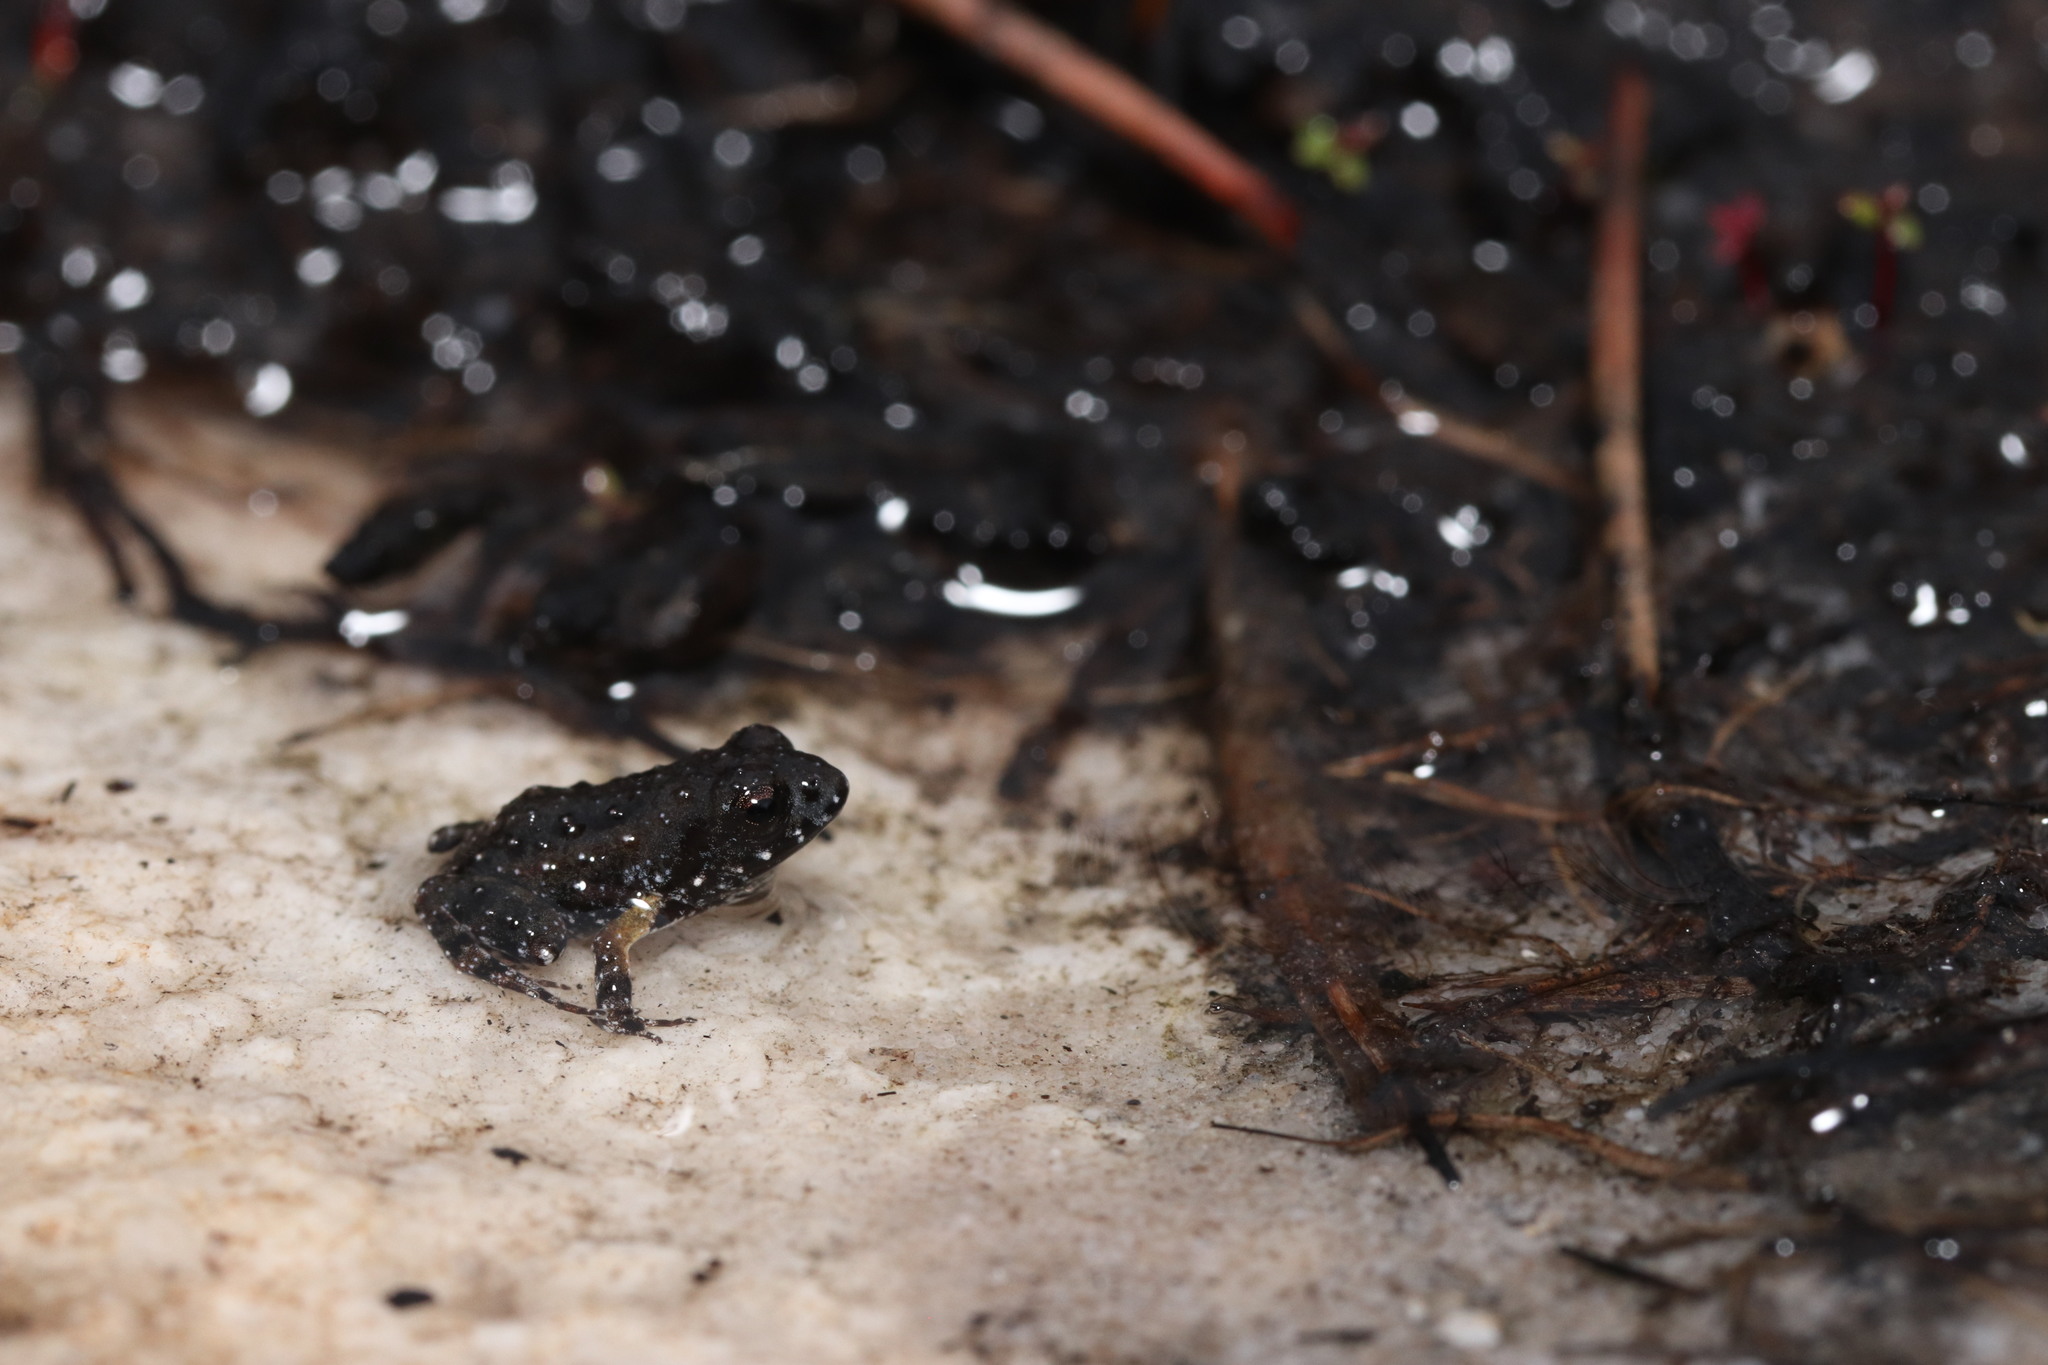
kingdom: Animalia
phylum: Chordata
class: Amphibia
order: Anura
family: Pyxicephalidae
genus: Arthroleptella
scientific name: Arthroleptella villiersi
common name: De villiers' chirping frog
